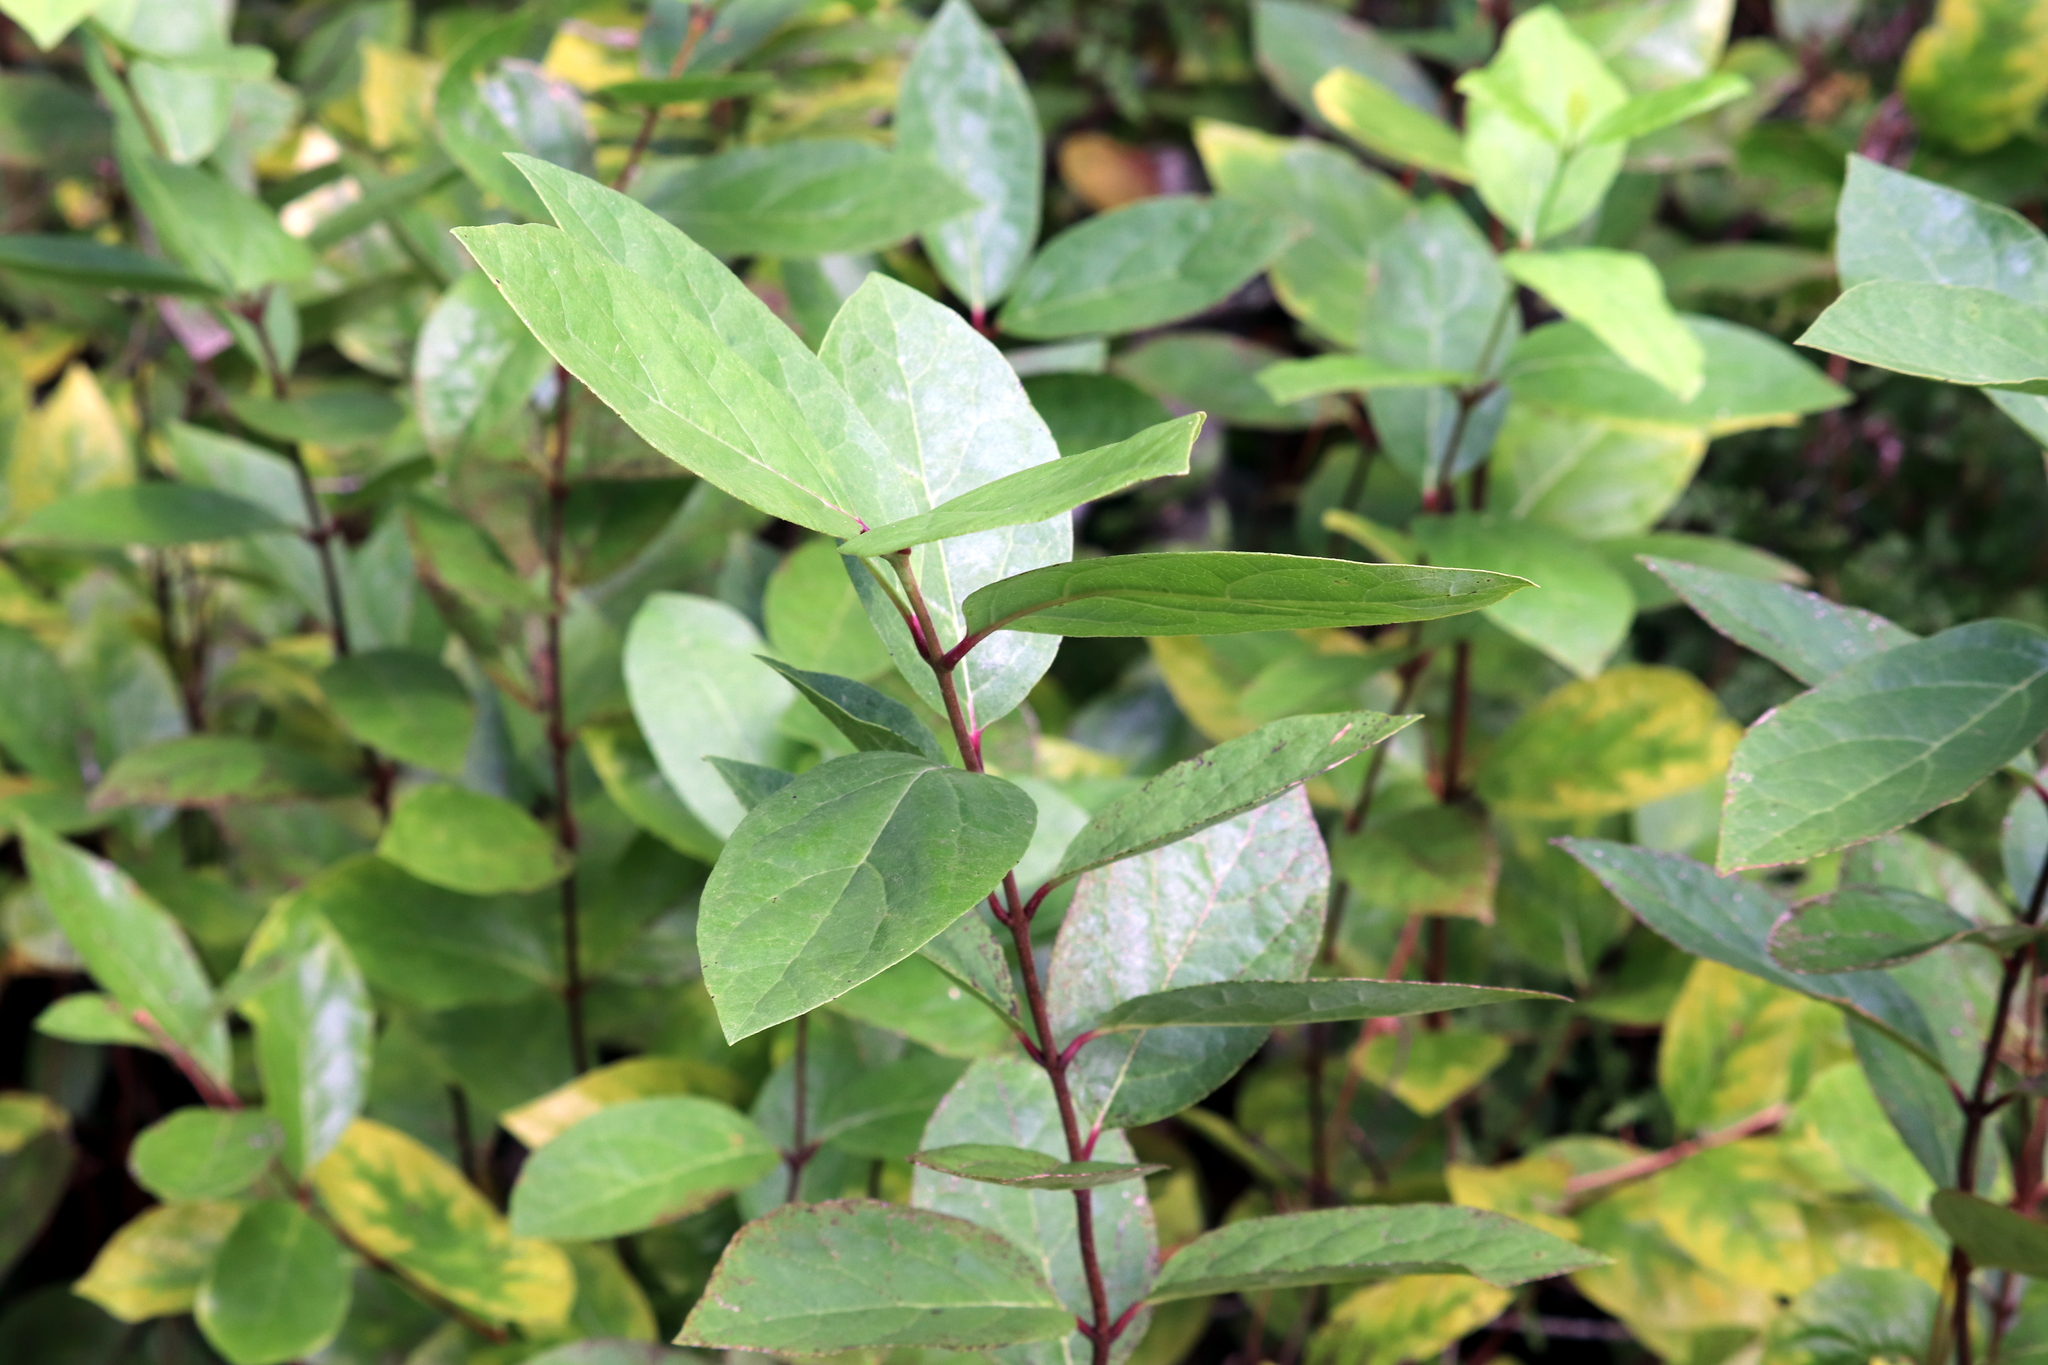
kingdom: Plantae
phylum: Tracheophyta
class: Magnoliopsida
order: Laurales
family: Calycanthaceae
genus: Calycanthus
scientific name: Calycanthus floridus
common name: Carolina-allspice
